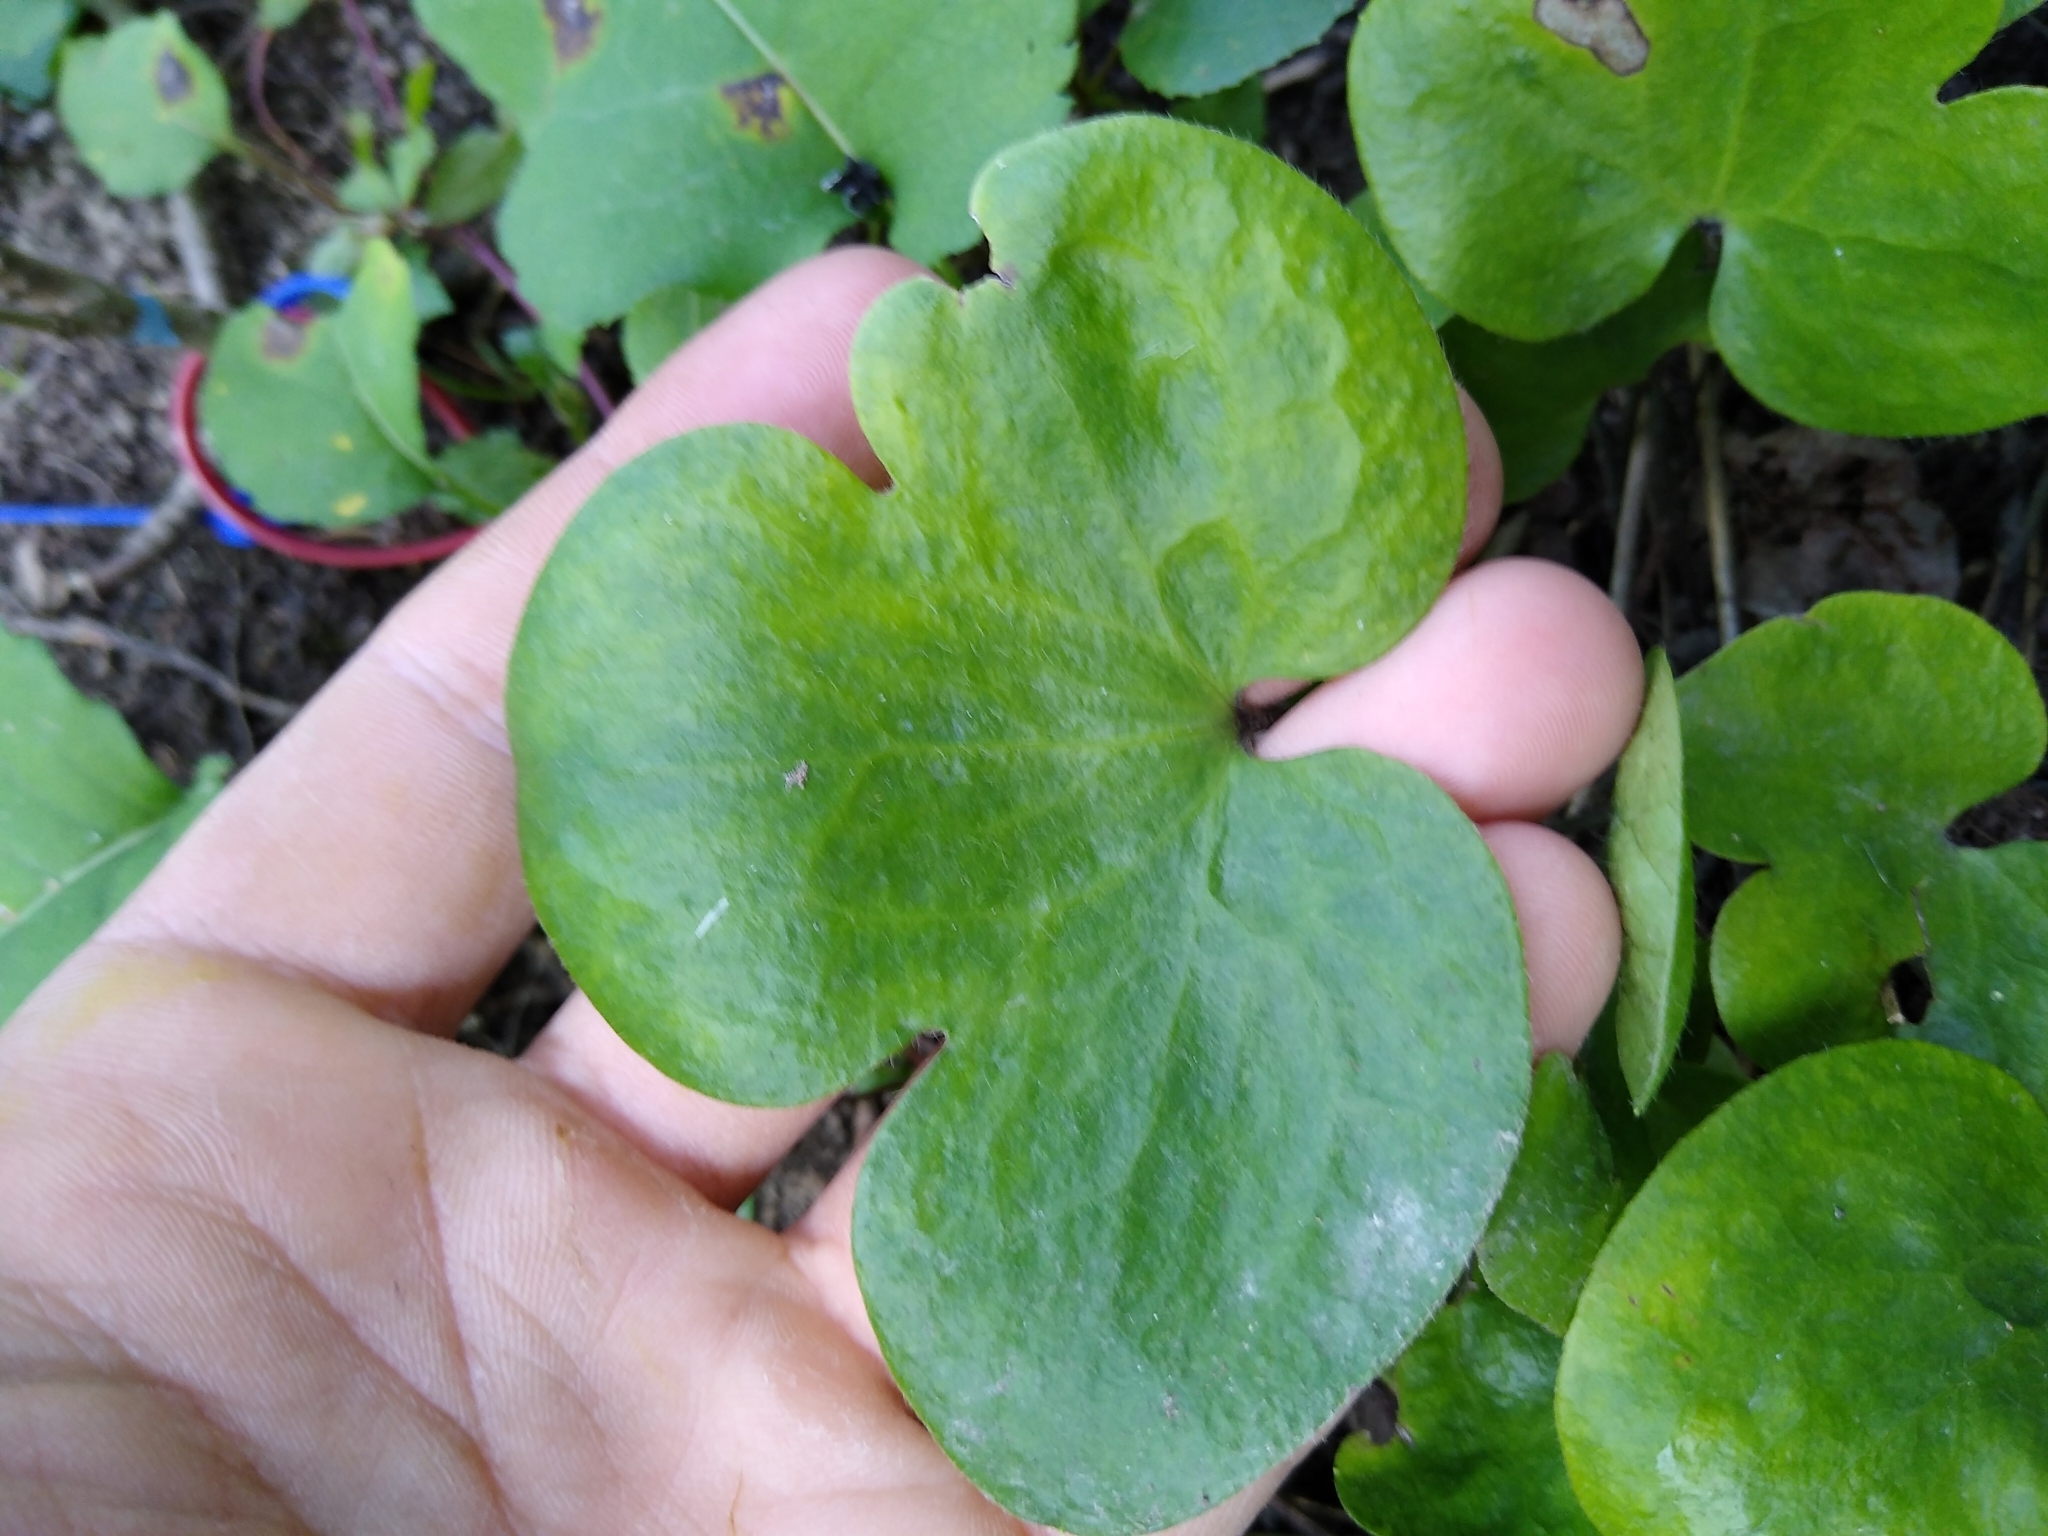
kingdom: Plantae
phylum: Tracheophyta
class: Magnoliopsida
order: Ranunculales
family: Ranunculaceae
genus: Hepatica
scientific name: Hepatica americana
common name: American hepatica
